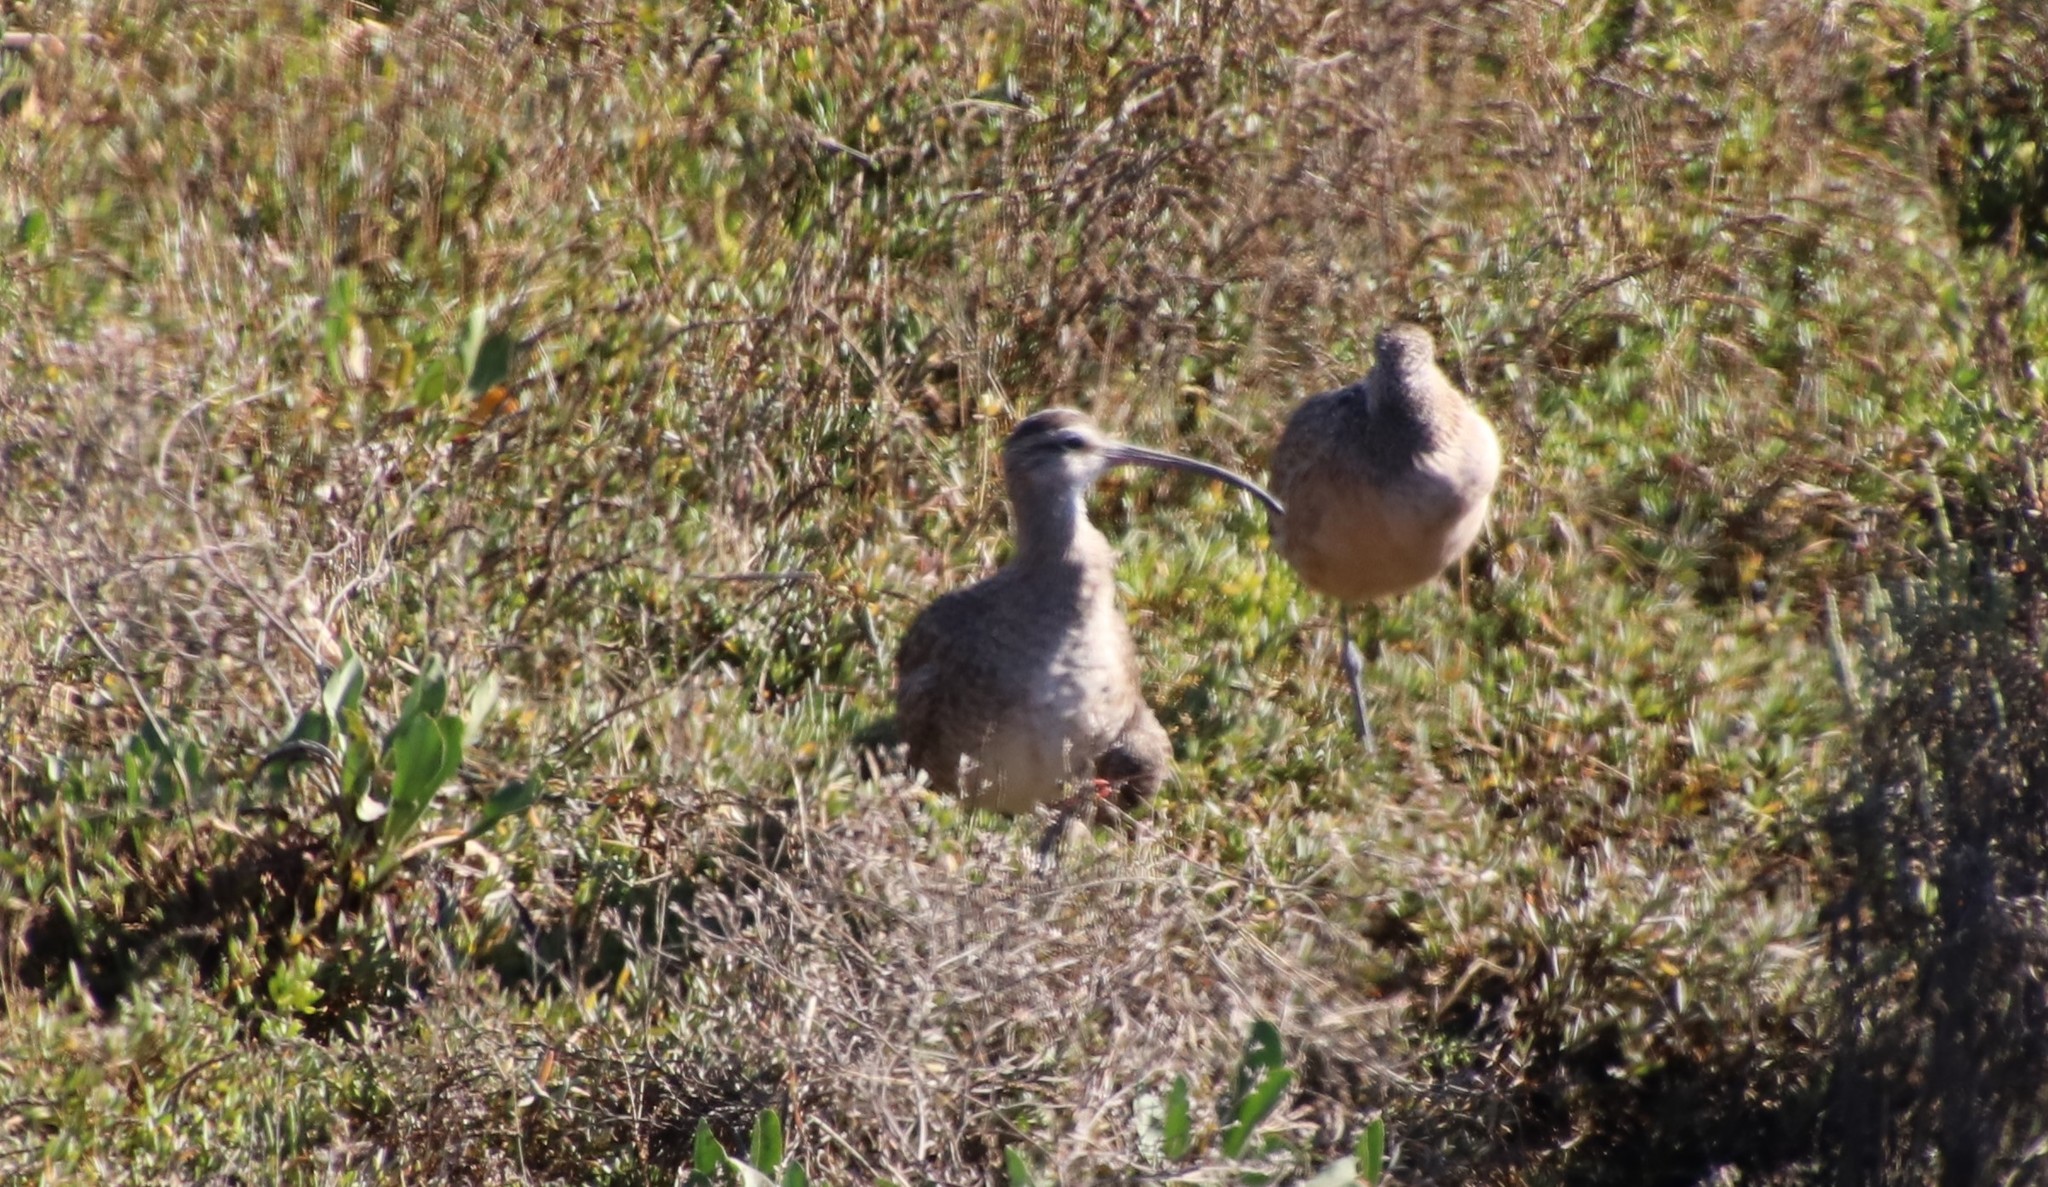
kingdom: Animalia
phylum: Chordata
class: Aves
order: Charadriiformes
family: Scolopacidae
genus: Numenius
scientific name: Numenius phaeopus
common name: Whimbrel
